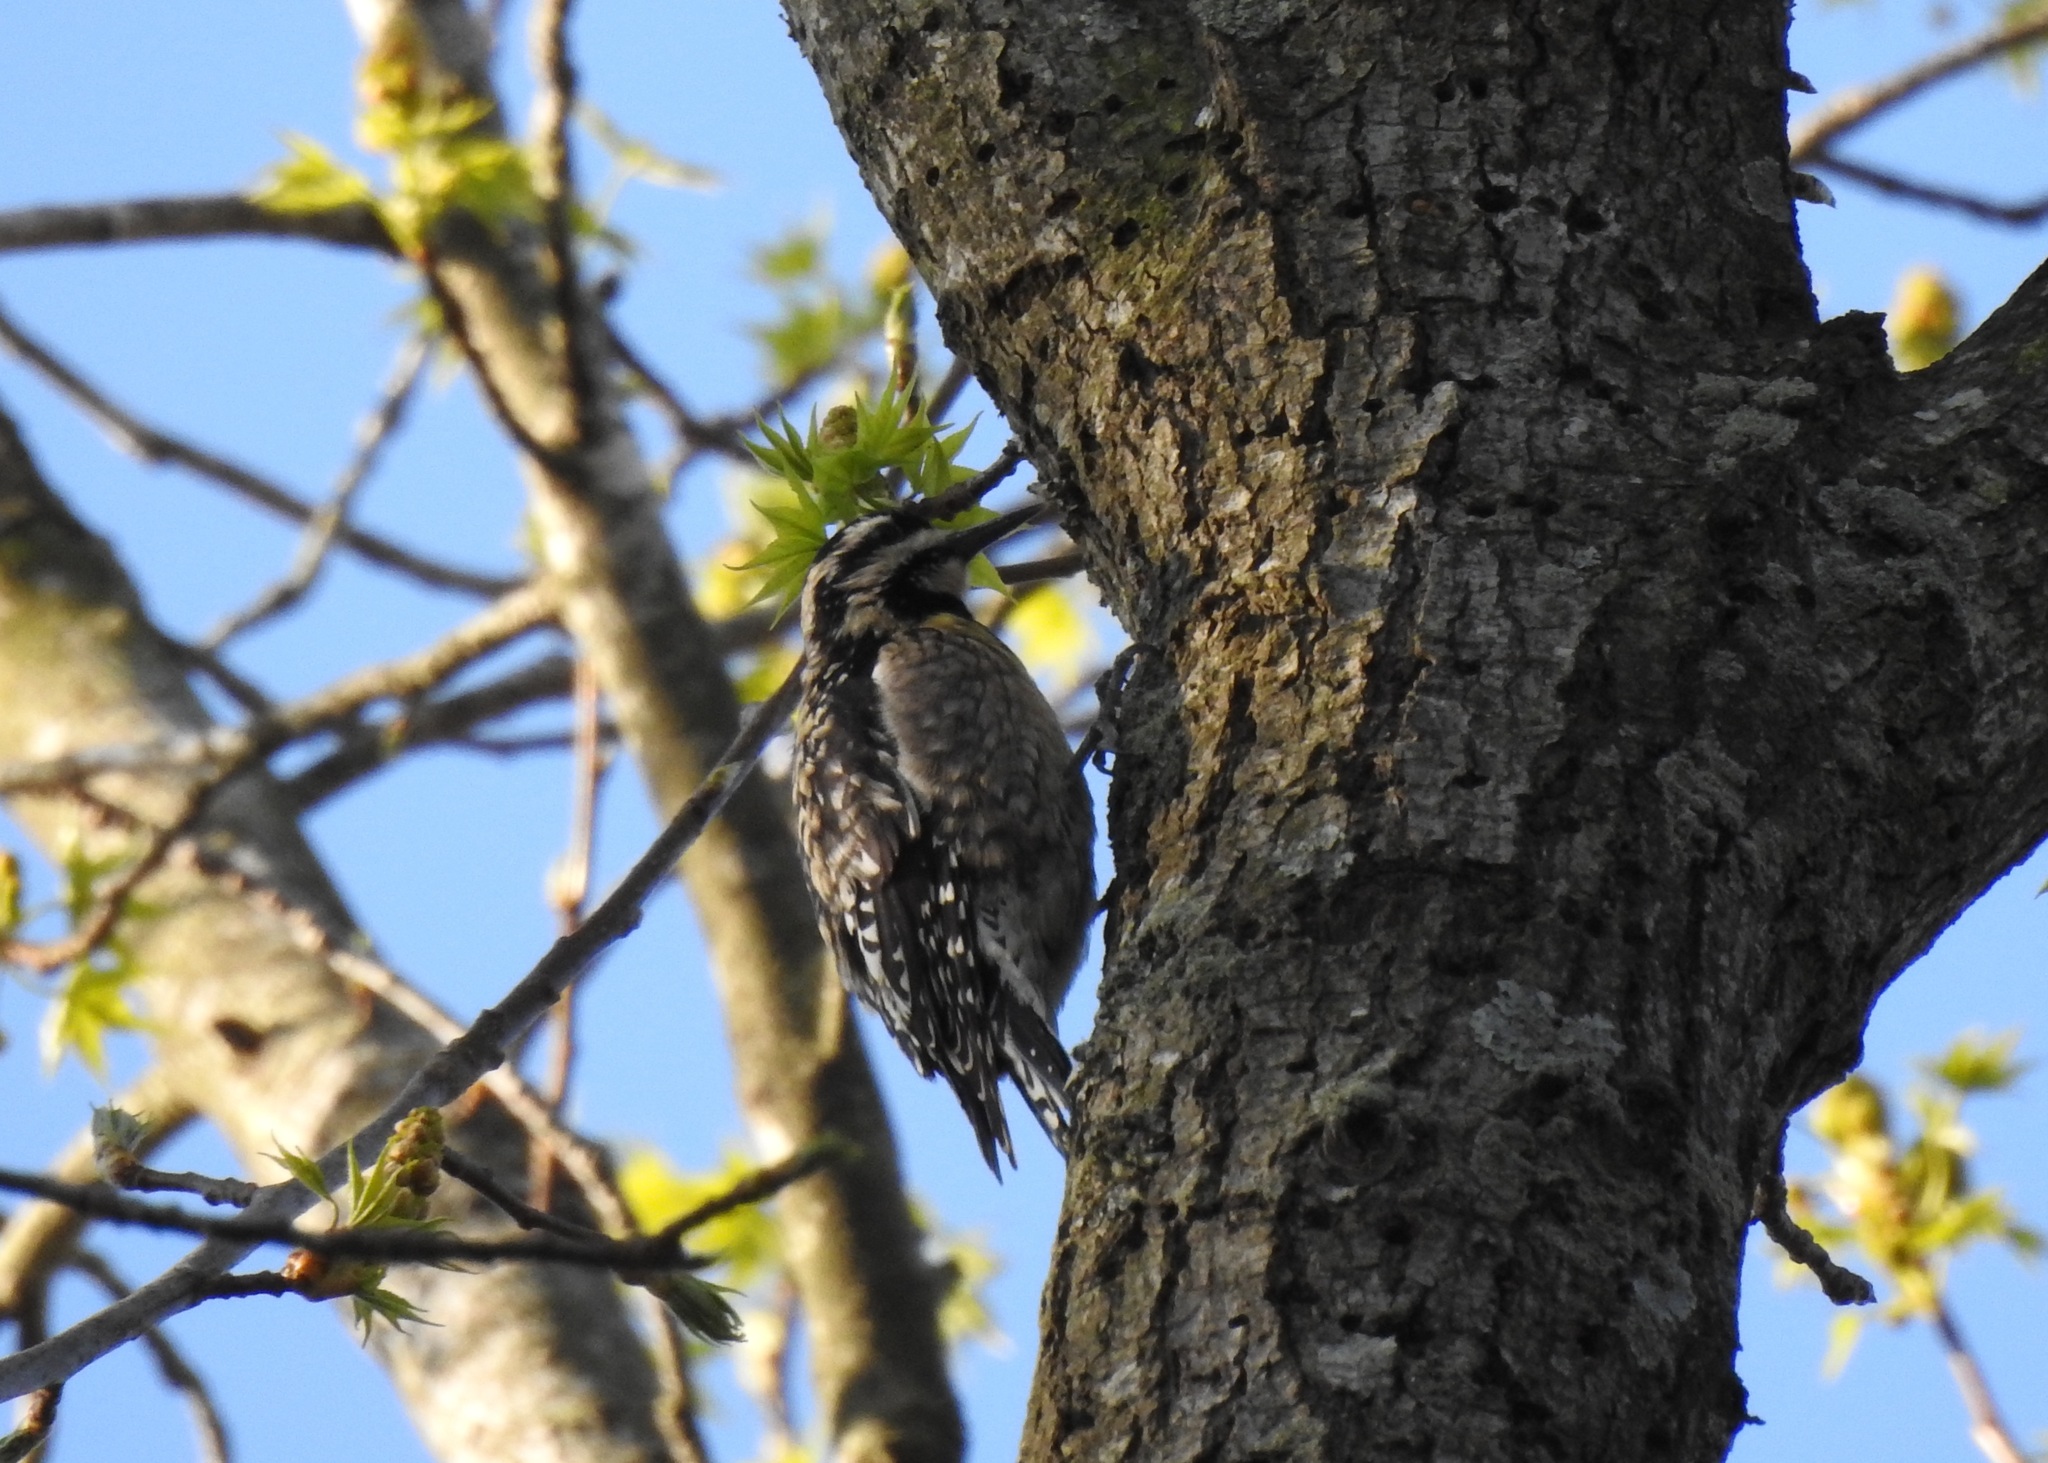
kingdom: Animalia
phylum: Chordata
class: Aves
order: Piciformes
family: Picidae
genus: Sphyrapicus
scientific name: Sphyrapicus varius
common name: Yellow-bellied sapsucker
